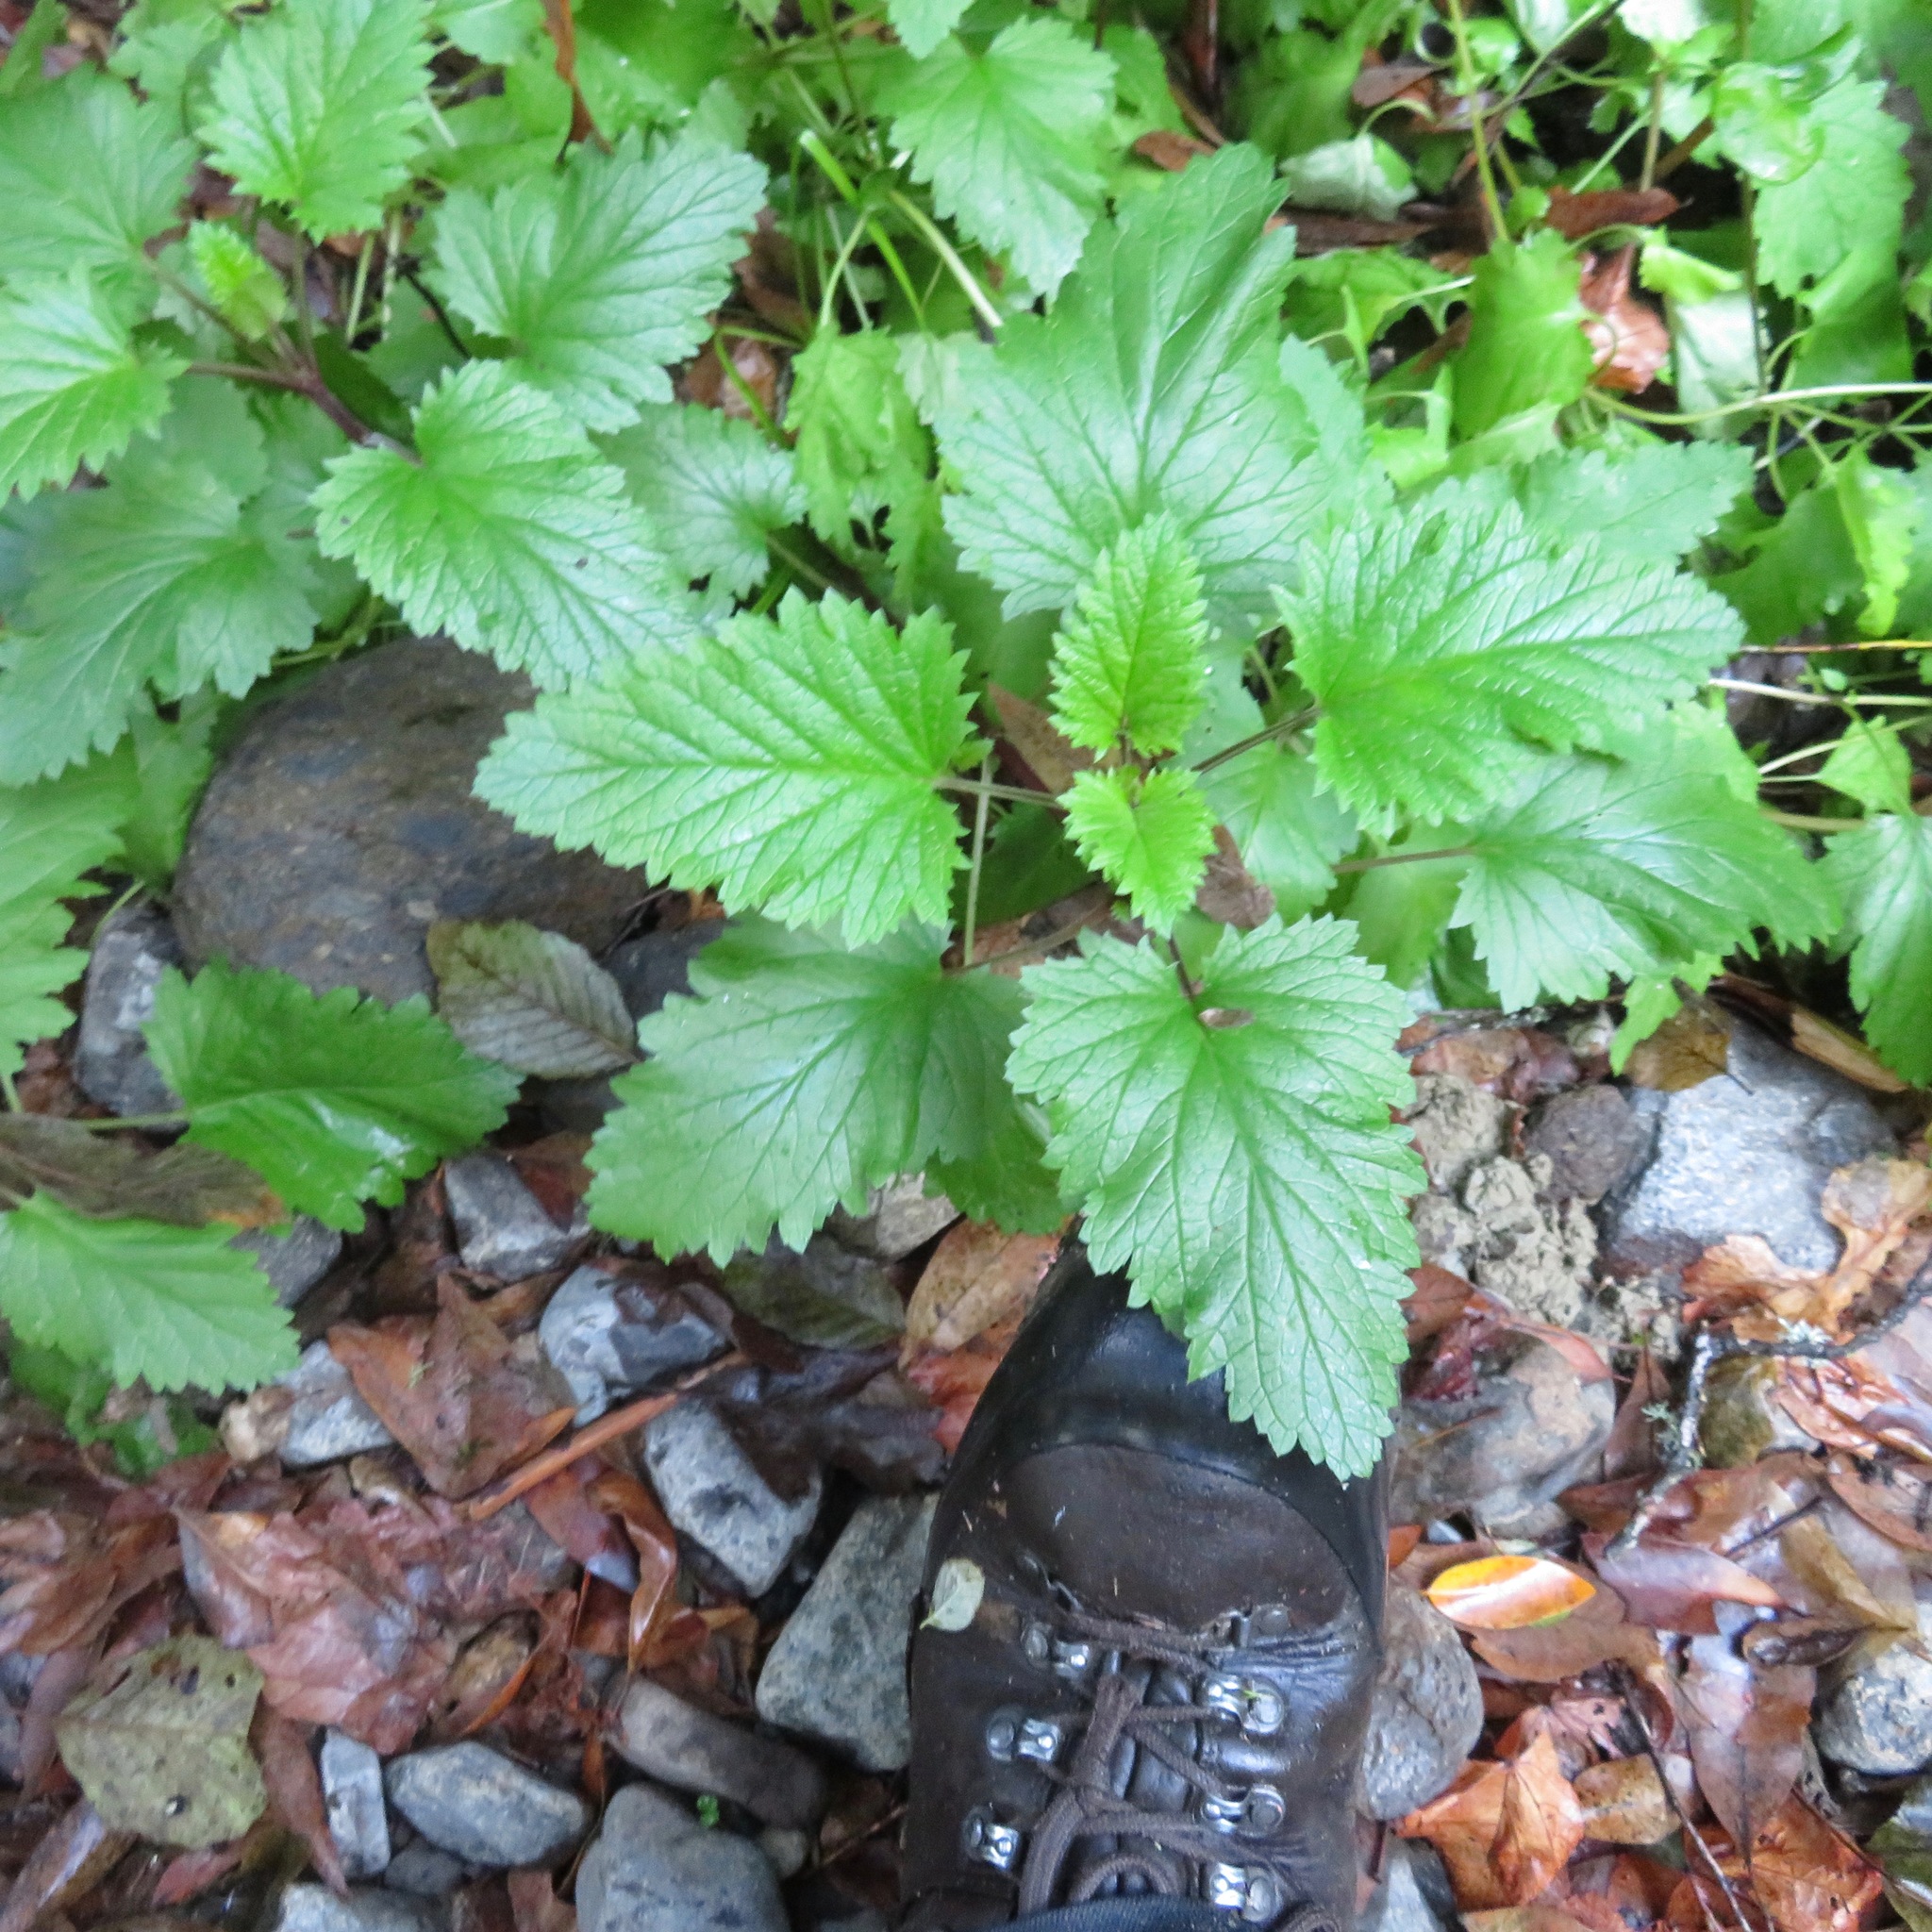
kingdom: Plantae
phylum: Tracheophyta
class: Magnoliopsida
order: Lamiales
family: Scrophulariaceae
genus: Scrophularia
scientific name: Scrophularia californica
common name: California figwort
